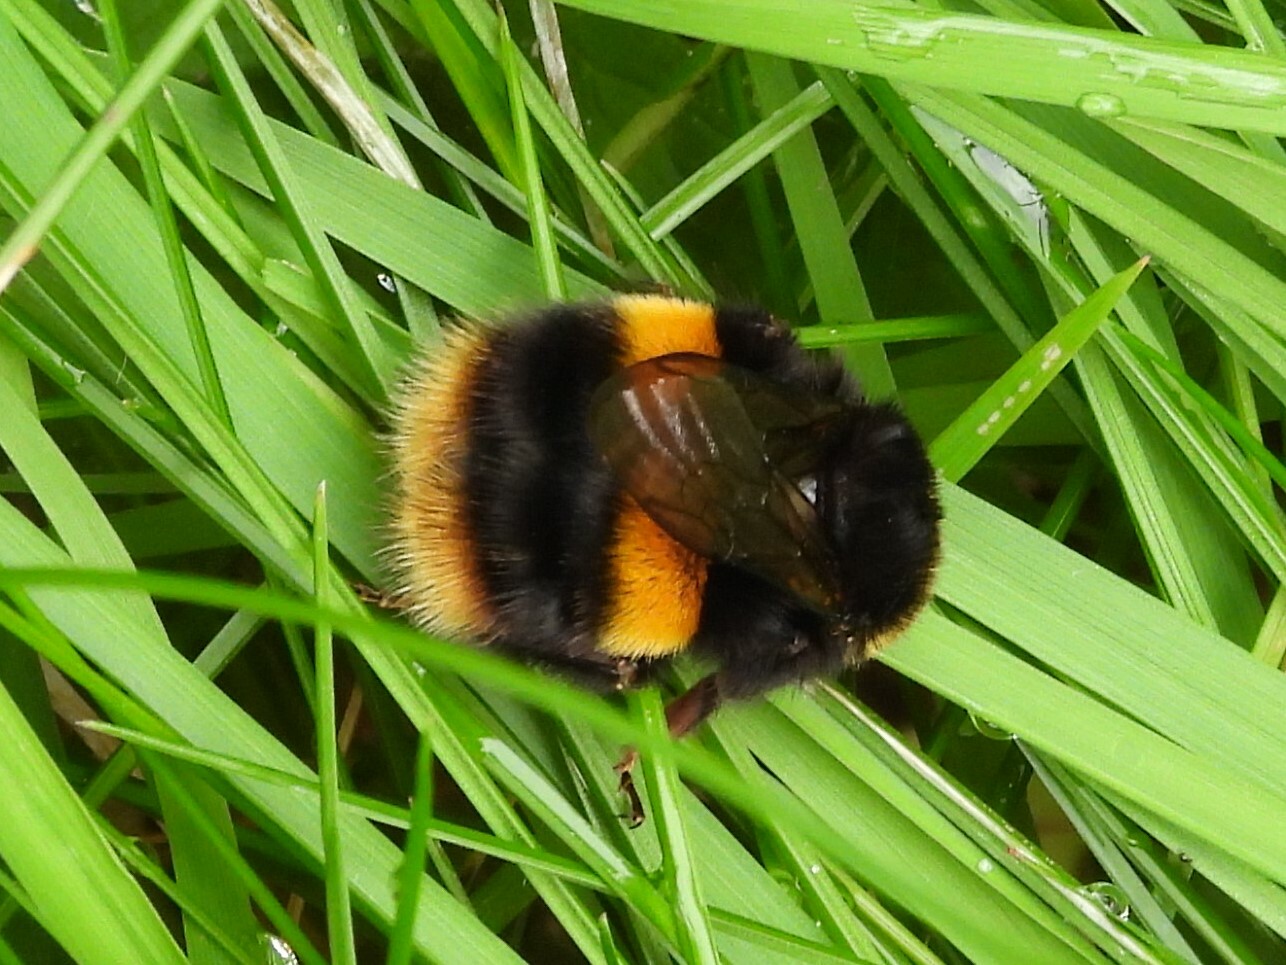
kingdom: Animalia
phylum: Arthropoda
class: Insecta
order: Hymenoptera
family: Apidae
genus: Bombus
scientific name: Bombus terrestris
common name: Buff-tailed bumblebee
